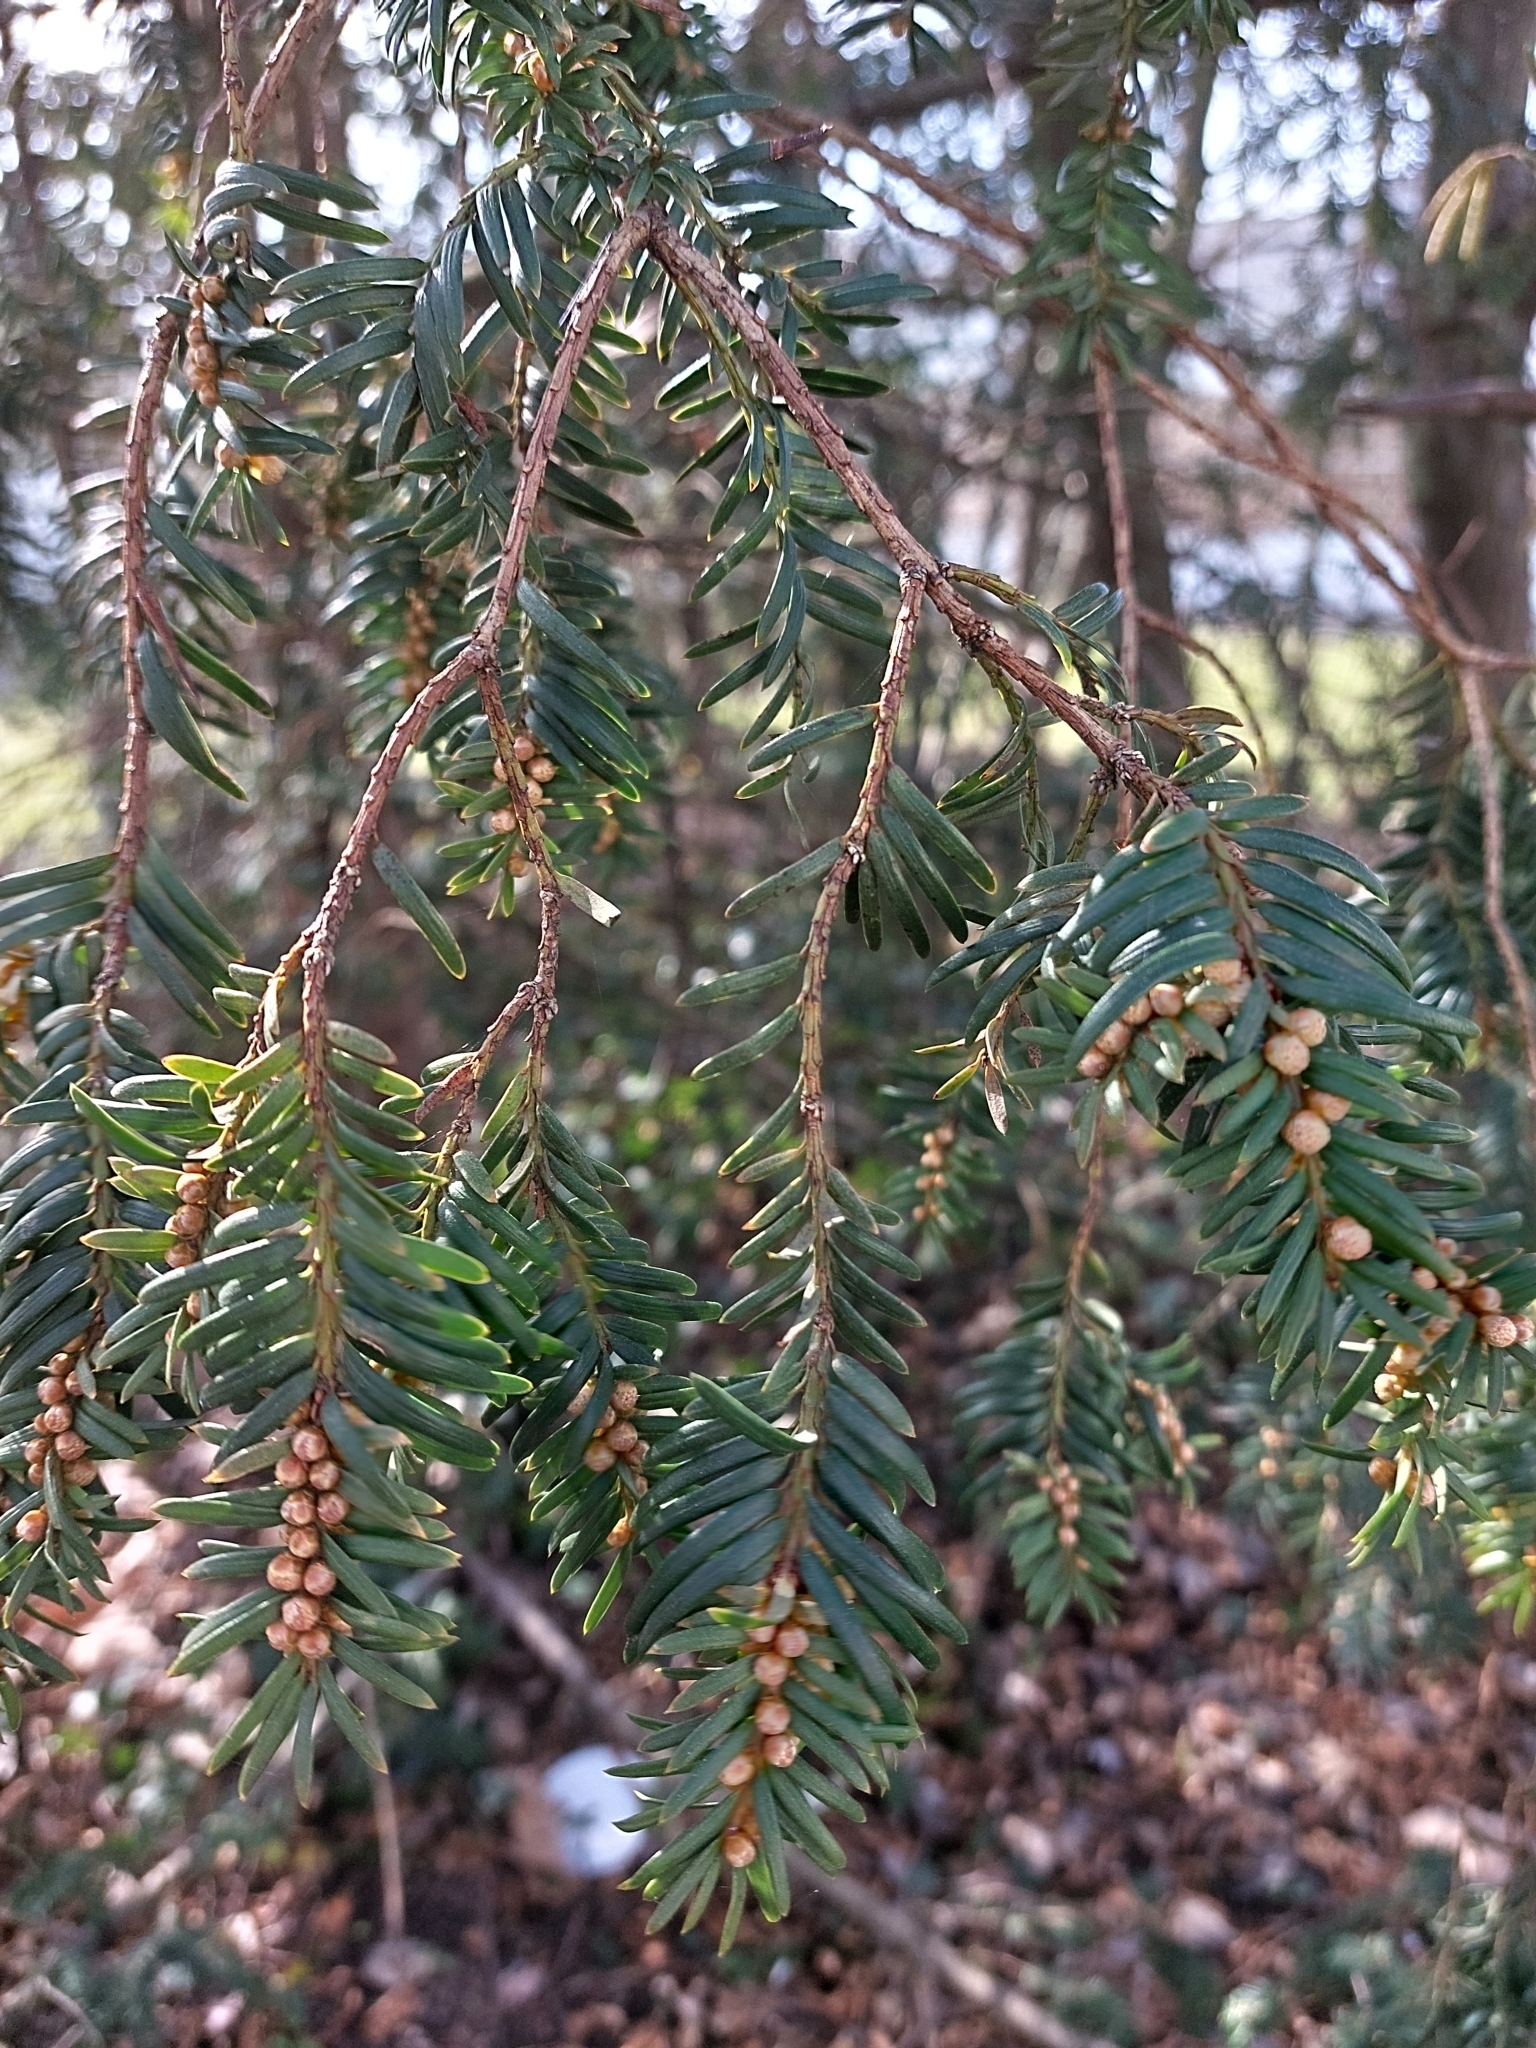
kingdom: Plantae
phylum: Tracheophyta
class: Pinopsida
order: Pinales
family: Taxaceae
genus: Taxus
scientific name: Taxus baccata
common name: Yew
